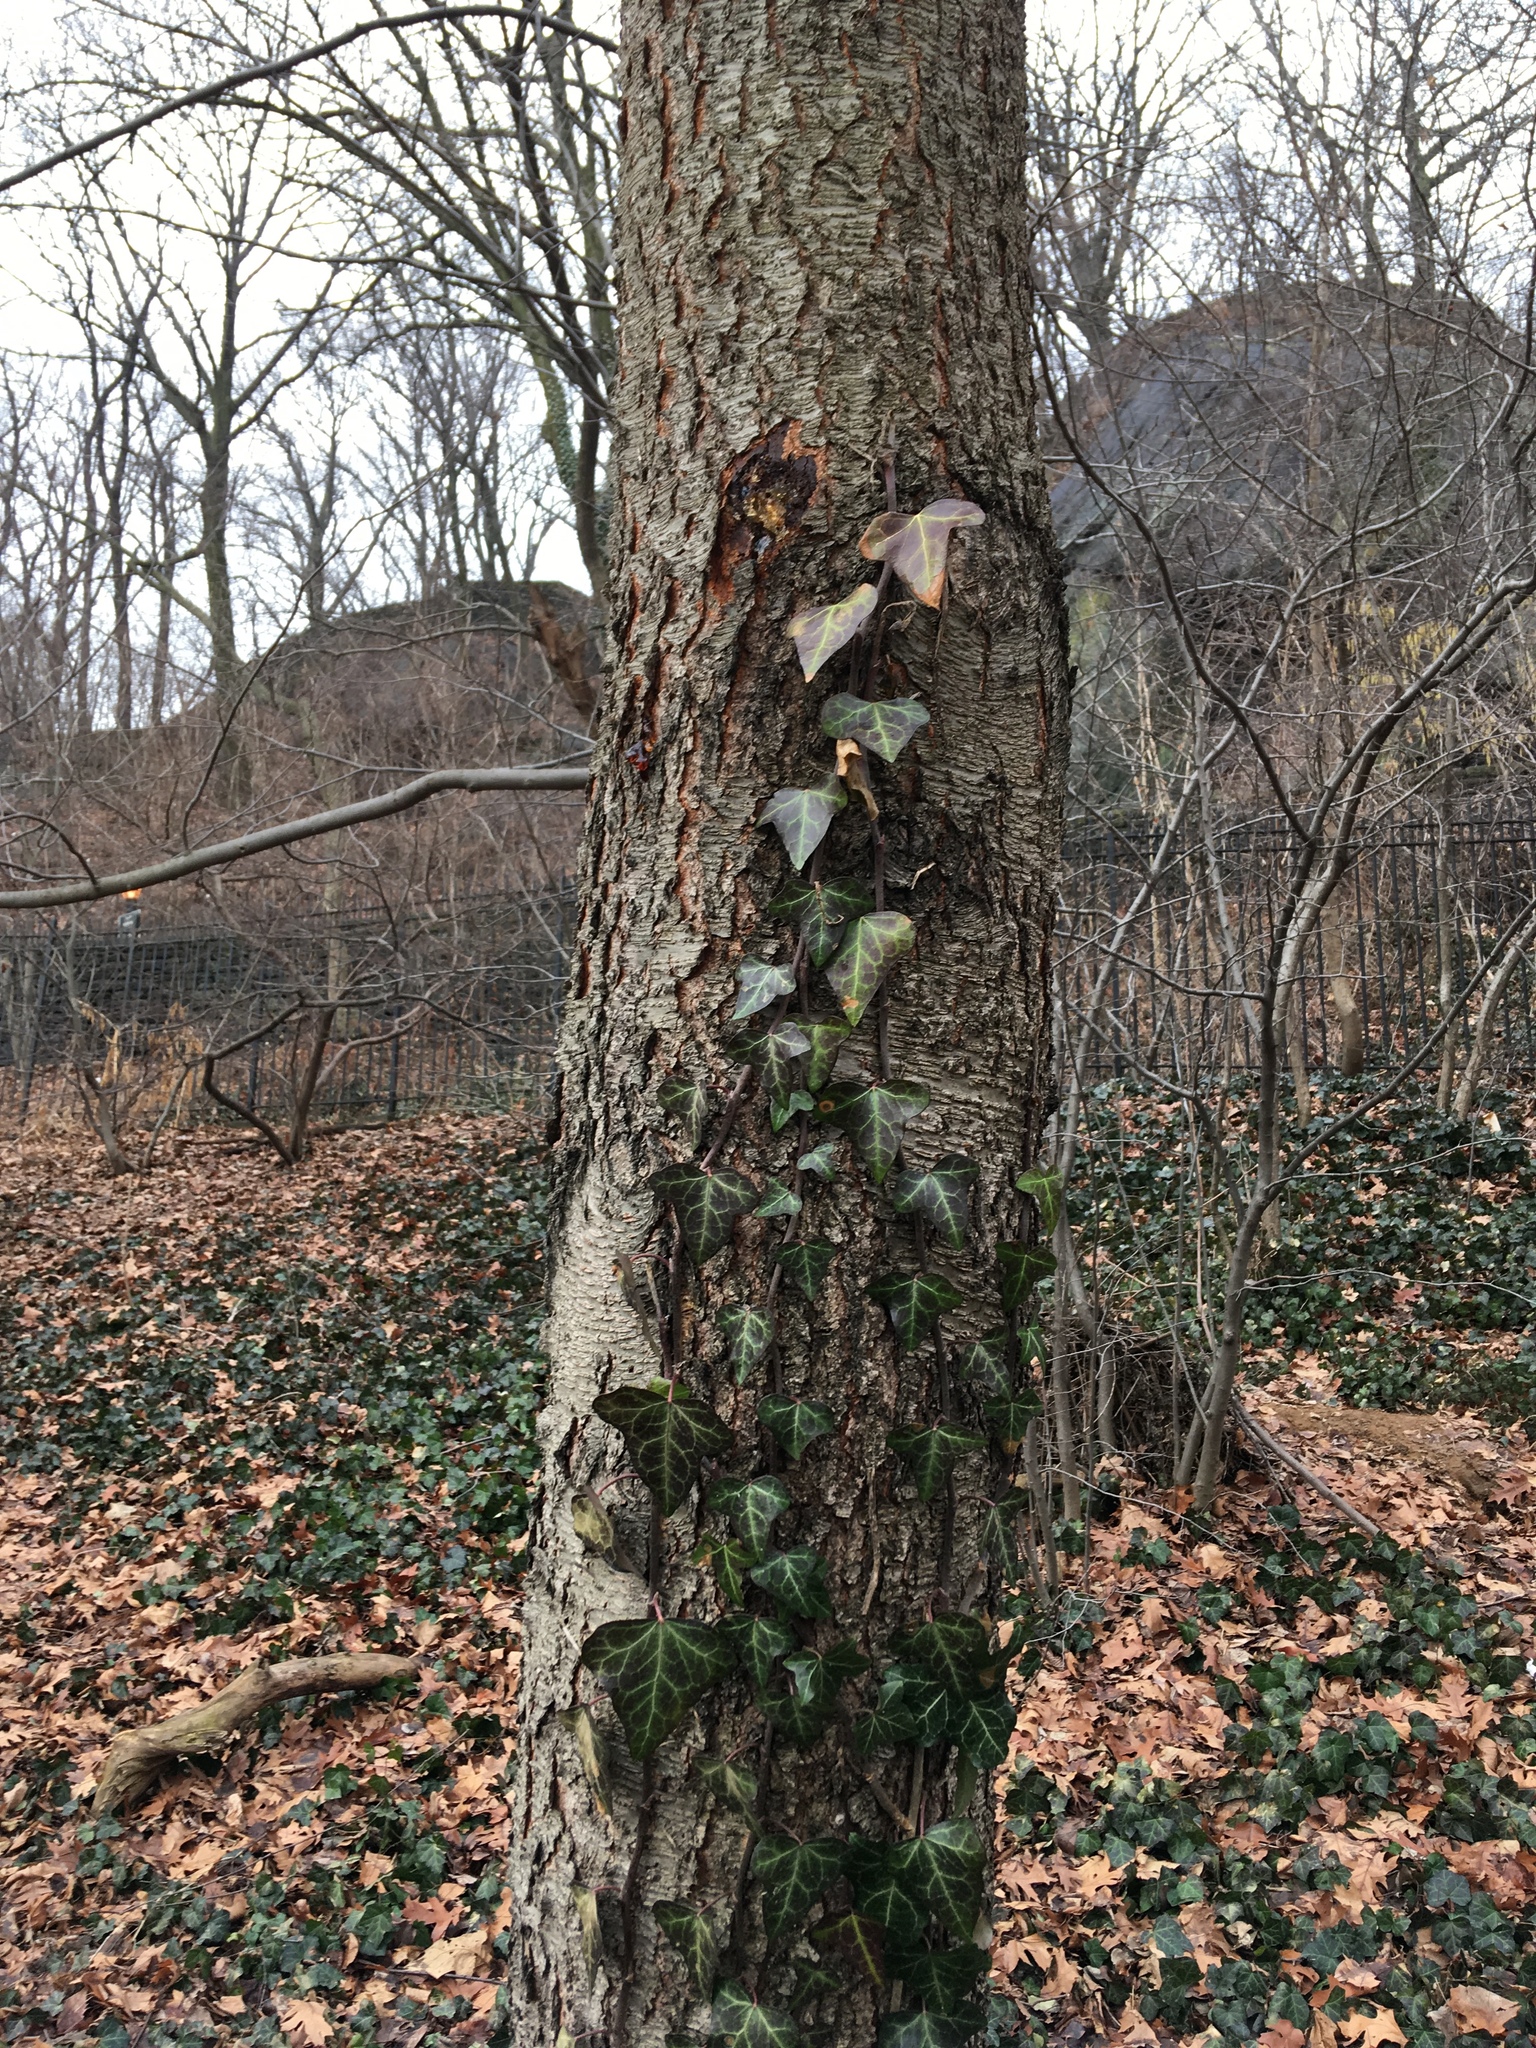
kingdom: Plantae
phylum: Tracheophyta
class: Magnoliopsida
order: Apiales
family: Araliaceae
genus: Hedera
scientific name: Hedera helix
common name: Ivy
